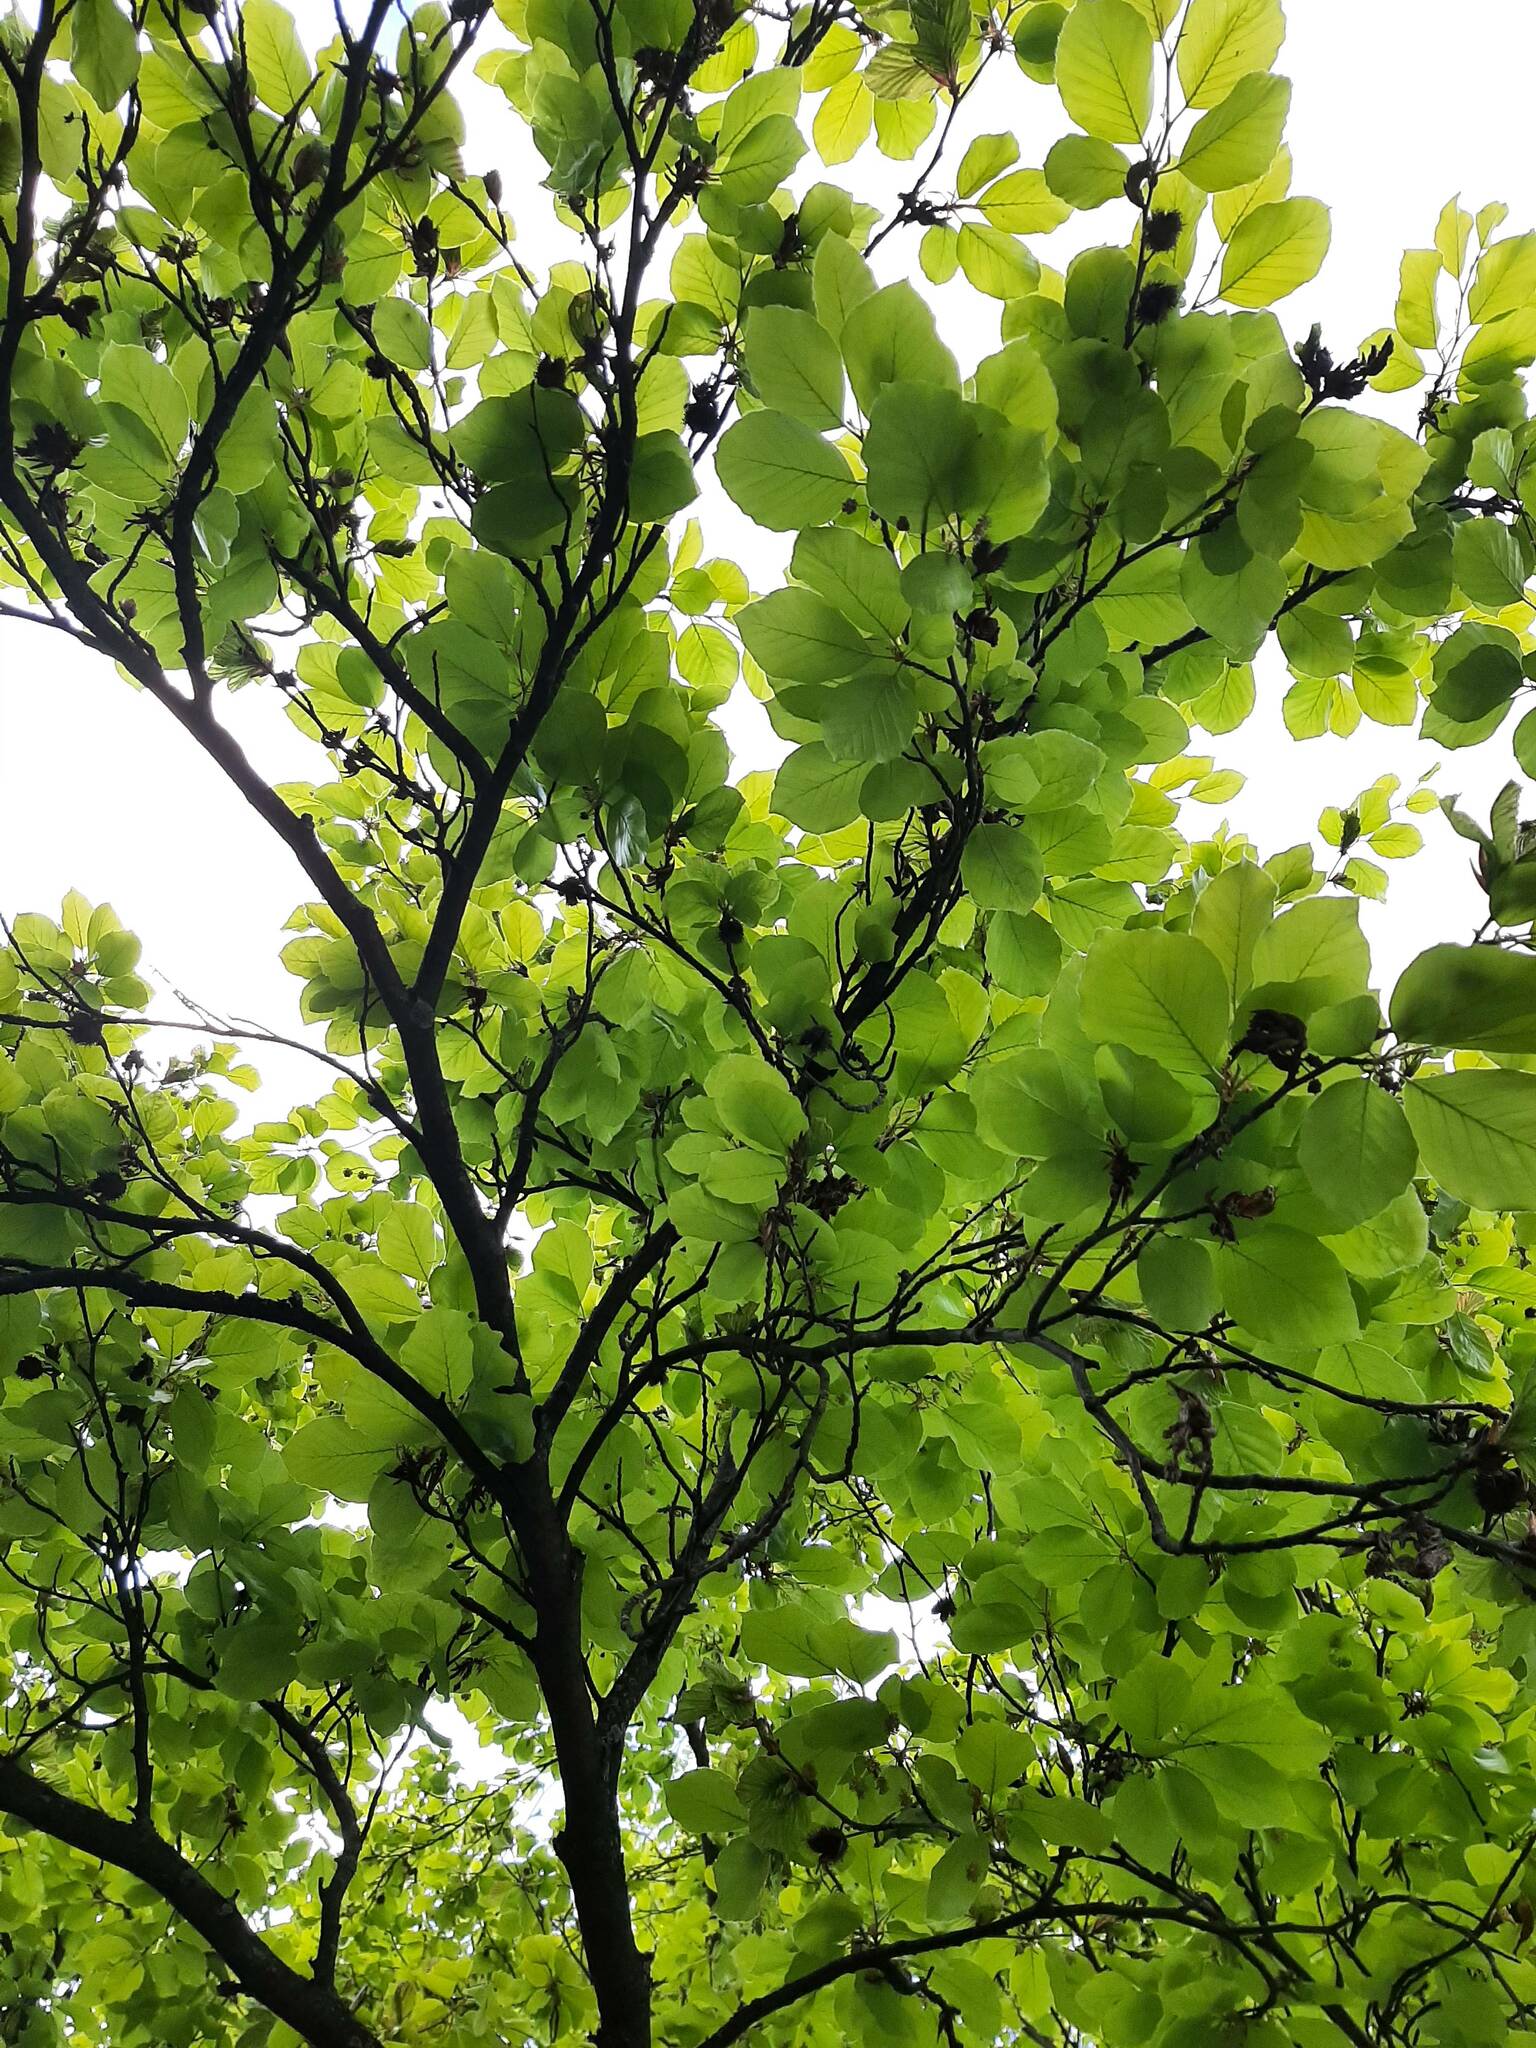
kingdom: Plantae
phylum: Tracheophyta
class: Magnoliopsida
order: Fagales
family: Fagaceae
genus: Fagus
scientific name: Fagus sylvatica
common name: Beech
